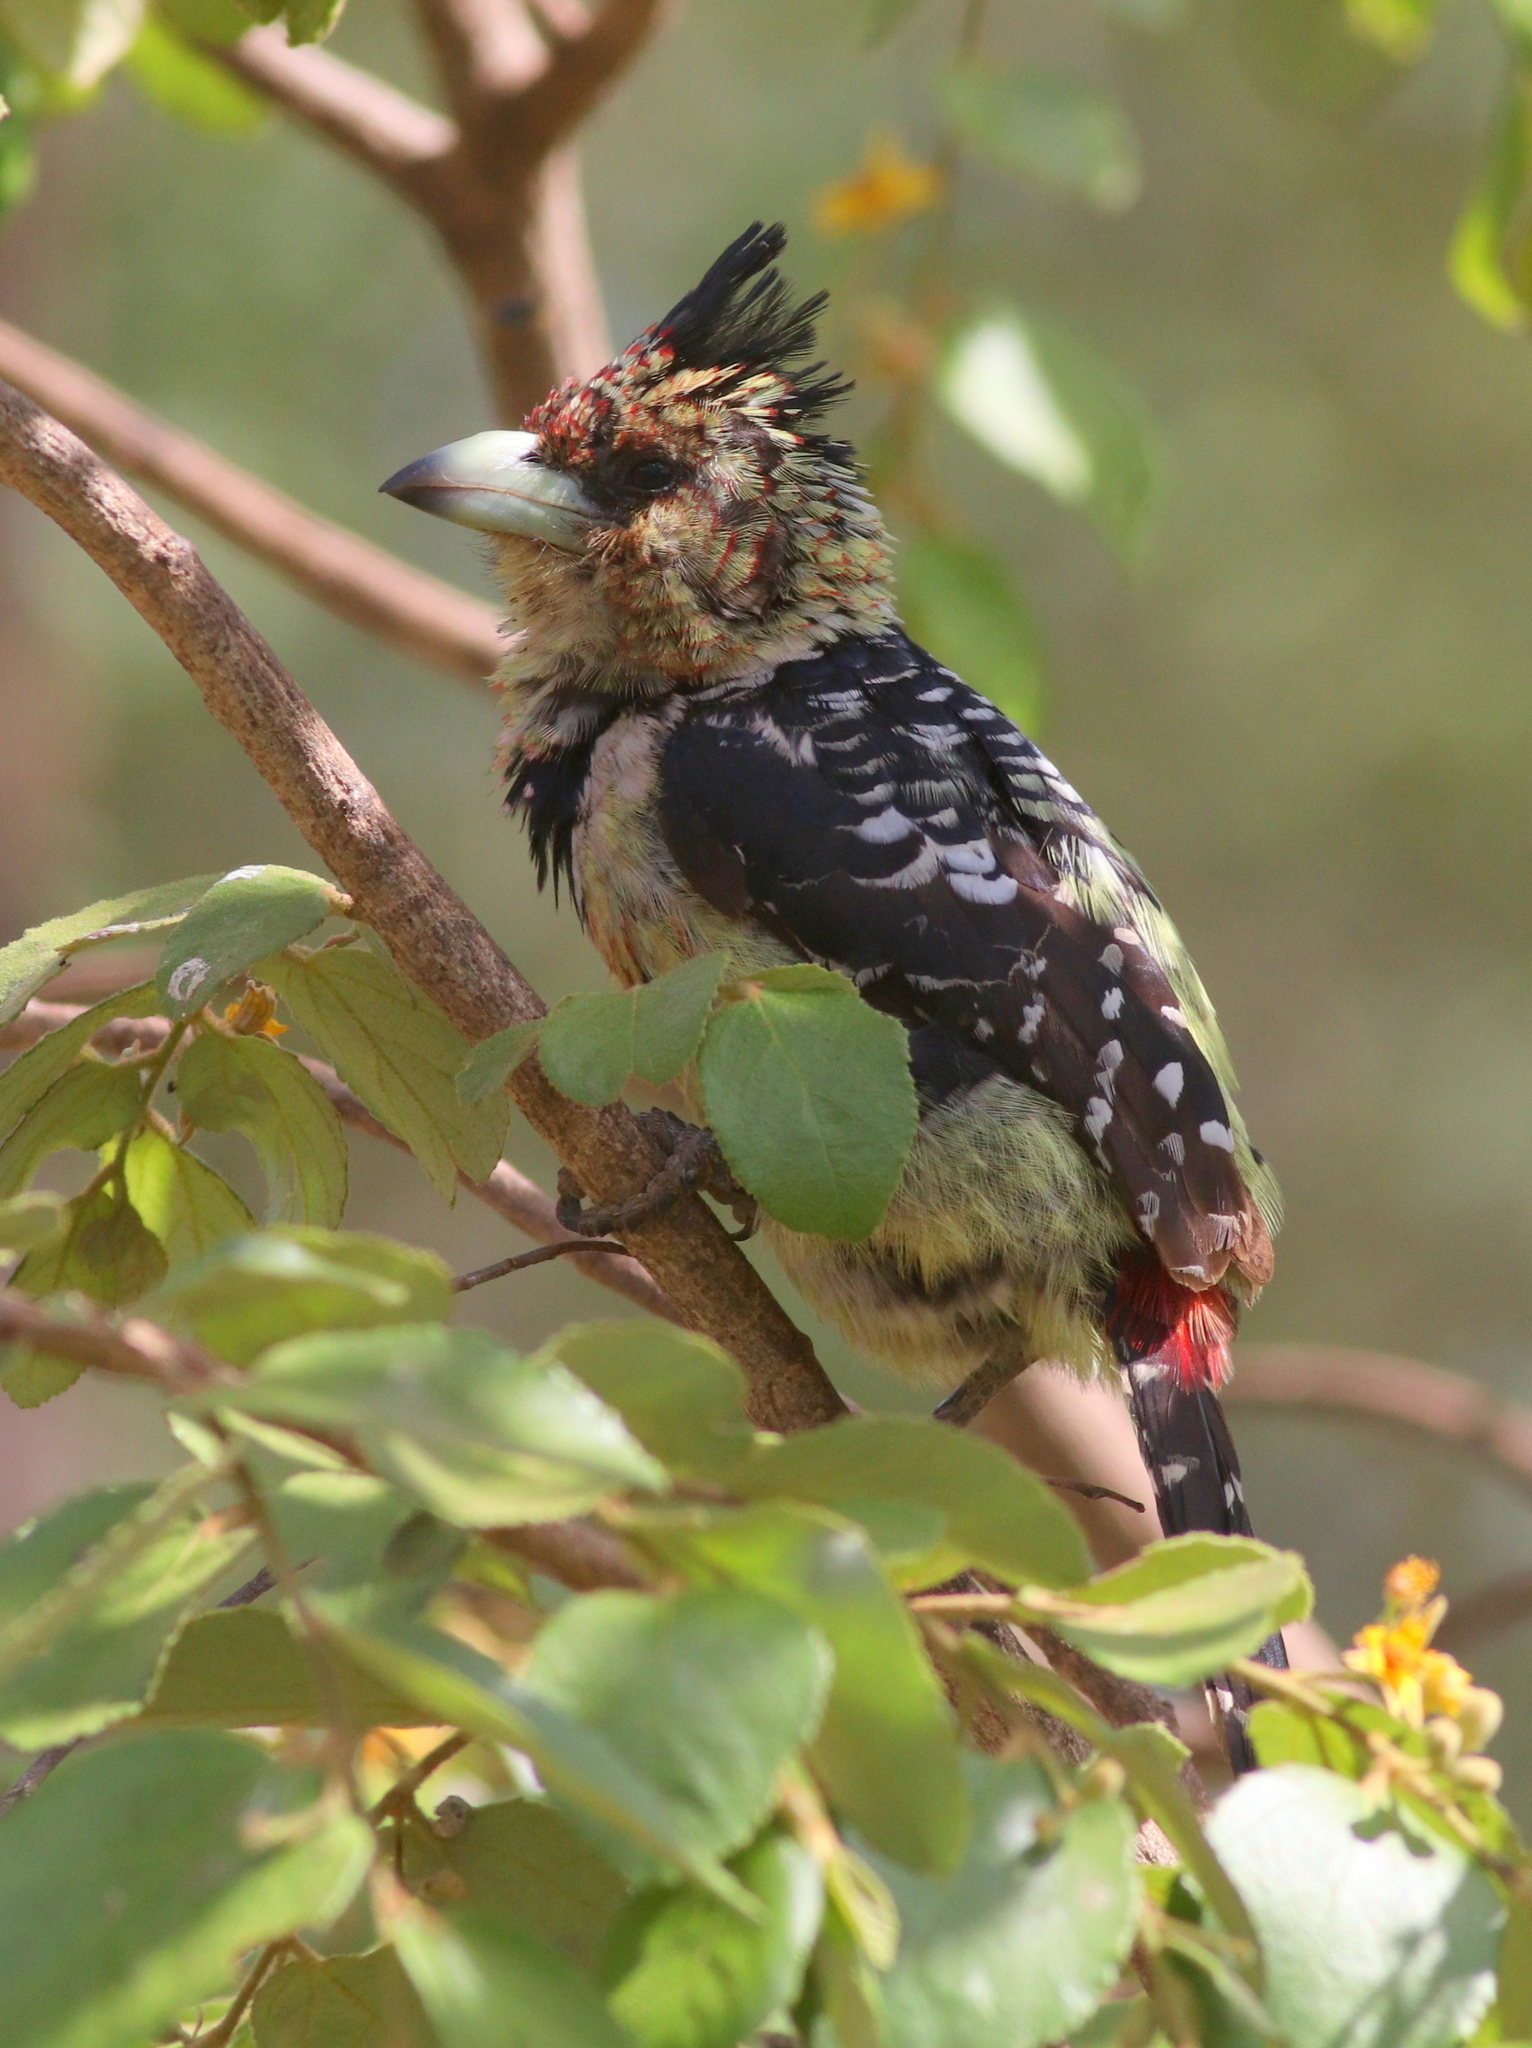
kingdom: Animalia
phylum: Chordata
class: Aves
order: Piciformes
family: Lybiidae
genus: Trachyphonus
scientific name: Trachyphonus vaillantii
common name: Crested barbet
